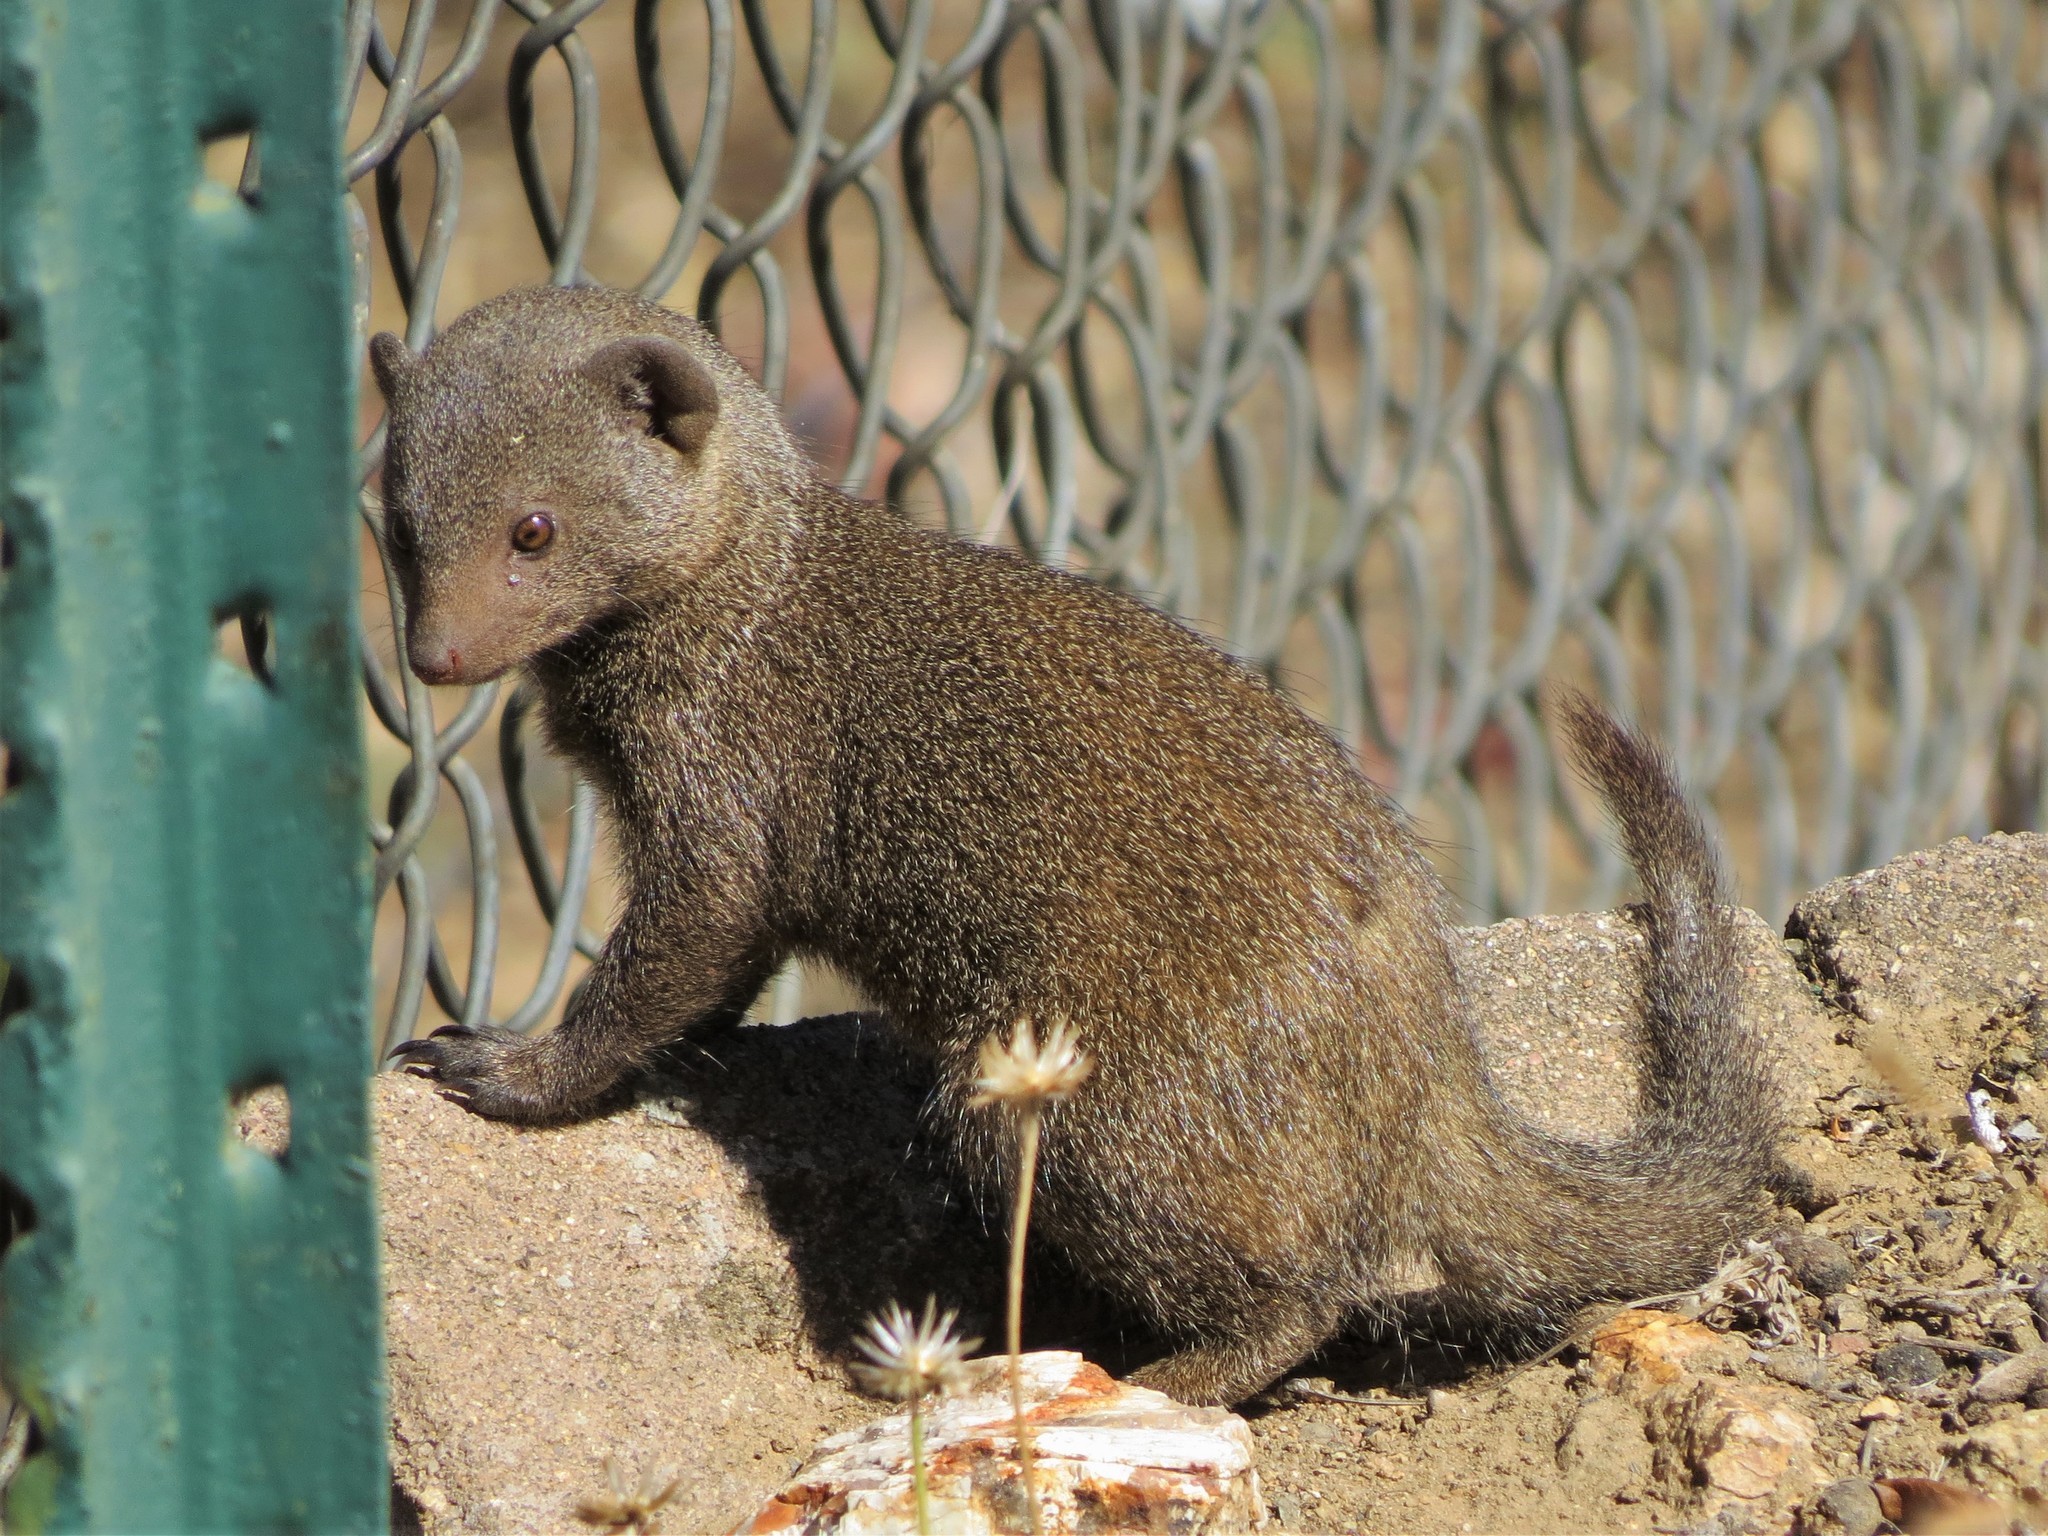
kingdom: Animalia
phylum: Chordata
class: Mammalia
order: Carnivora
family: Herpestidae
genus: Helogale
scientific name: Helogale parvula
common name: Common dwarf mongoose
